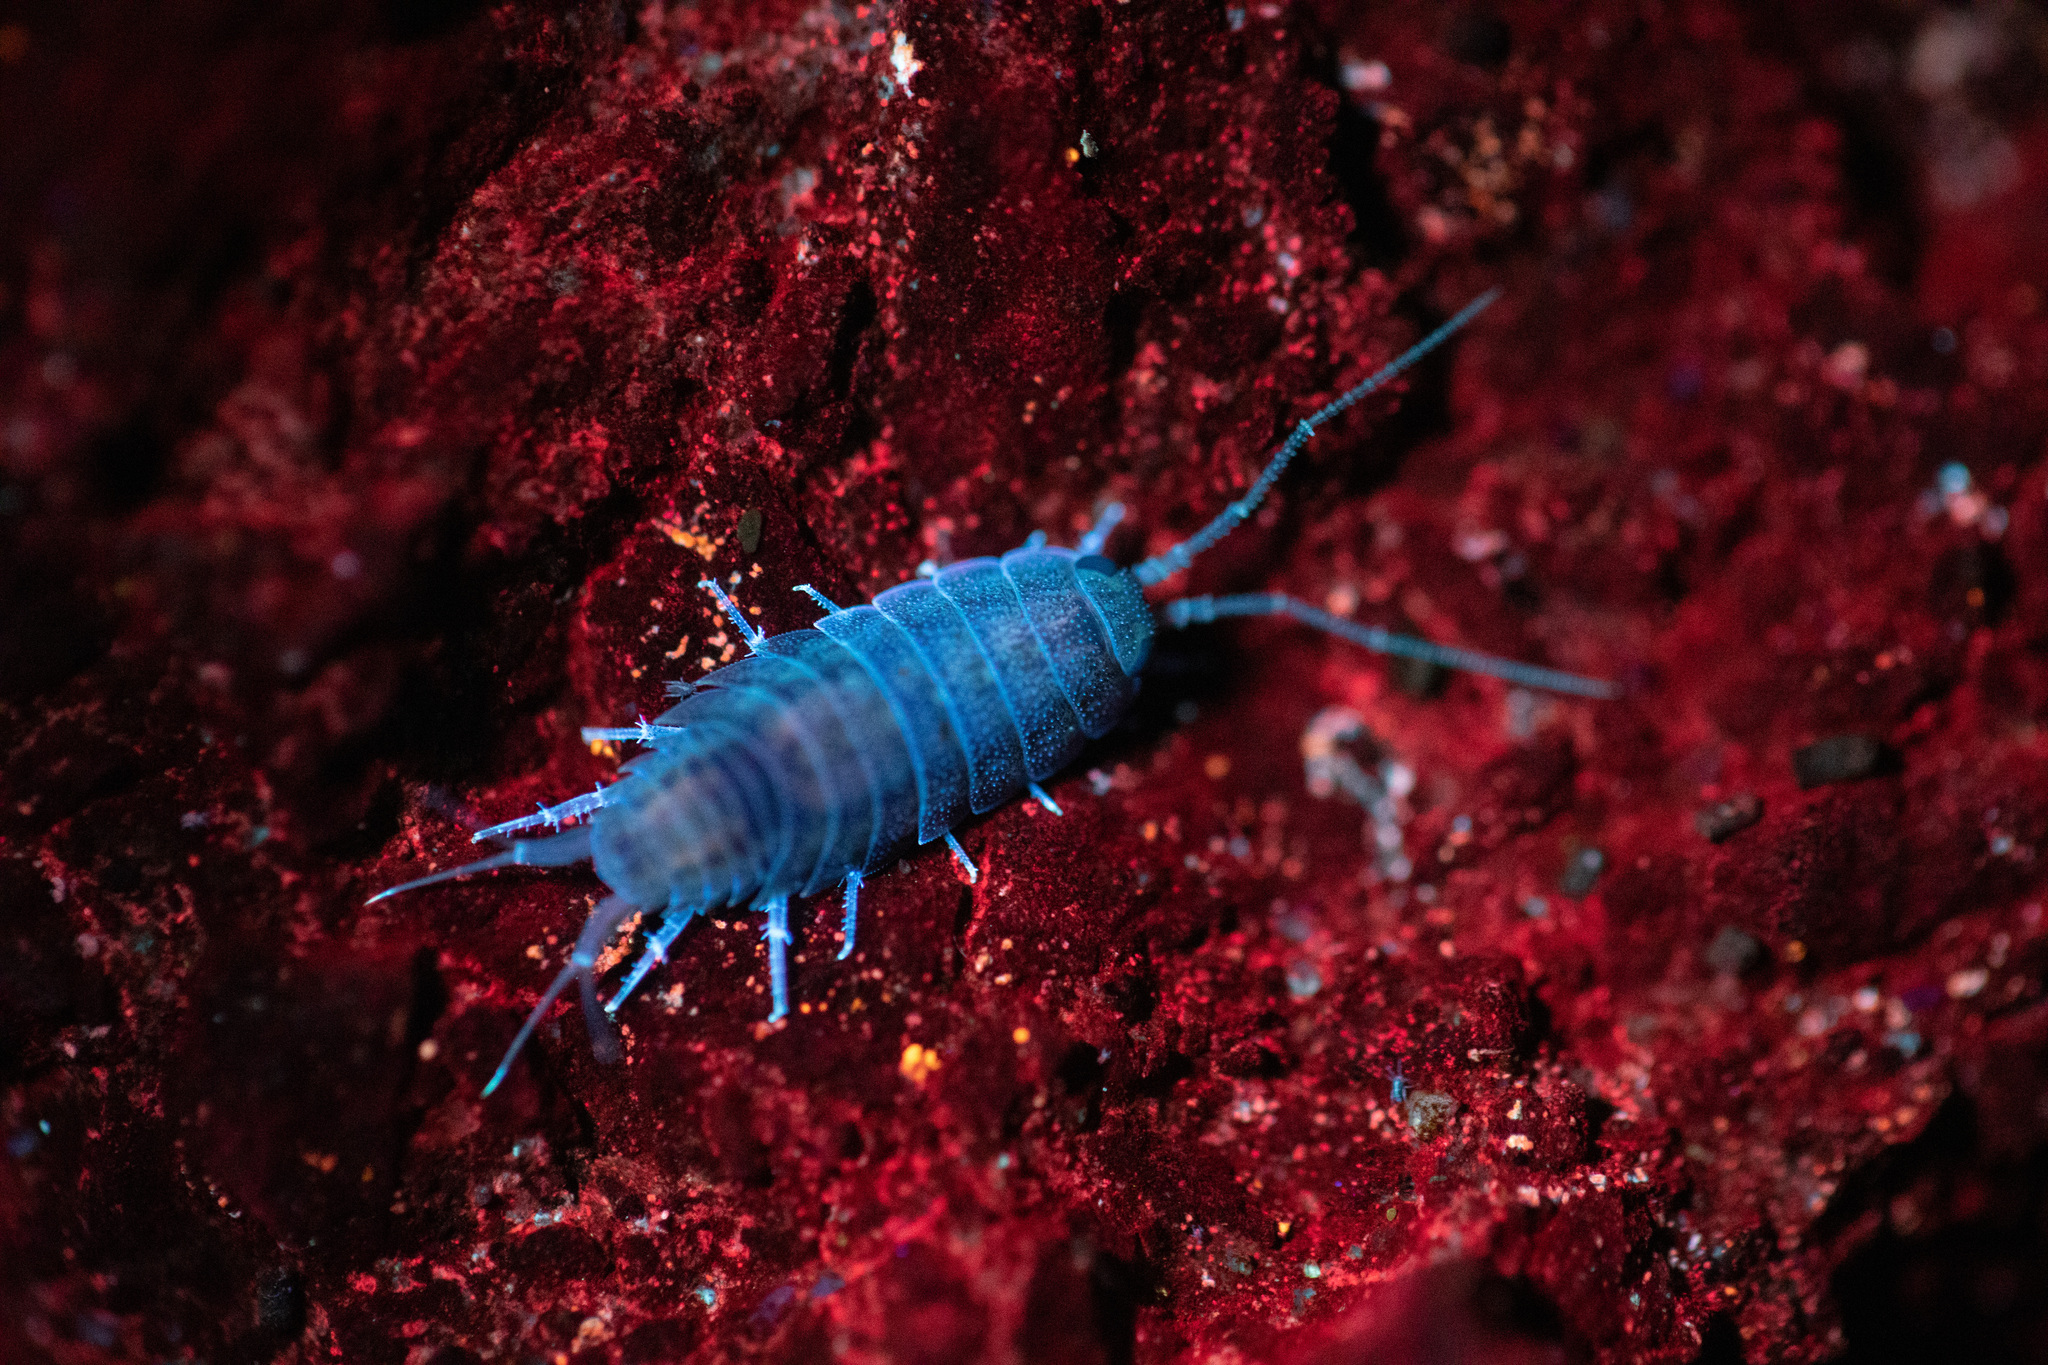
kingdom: Animalia
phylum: Arthropoda
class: Malacostraca
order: Isopoda
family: Ligiidae
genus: Ligia
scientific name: Ligia novizealandiae
